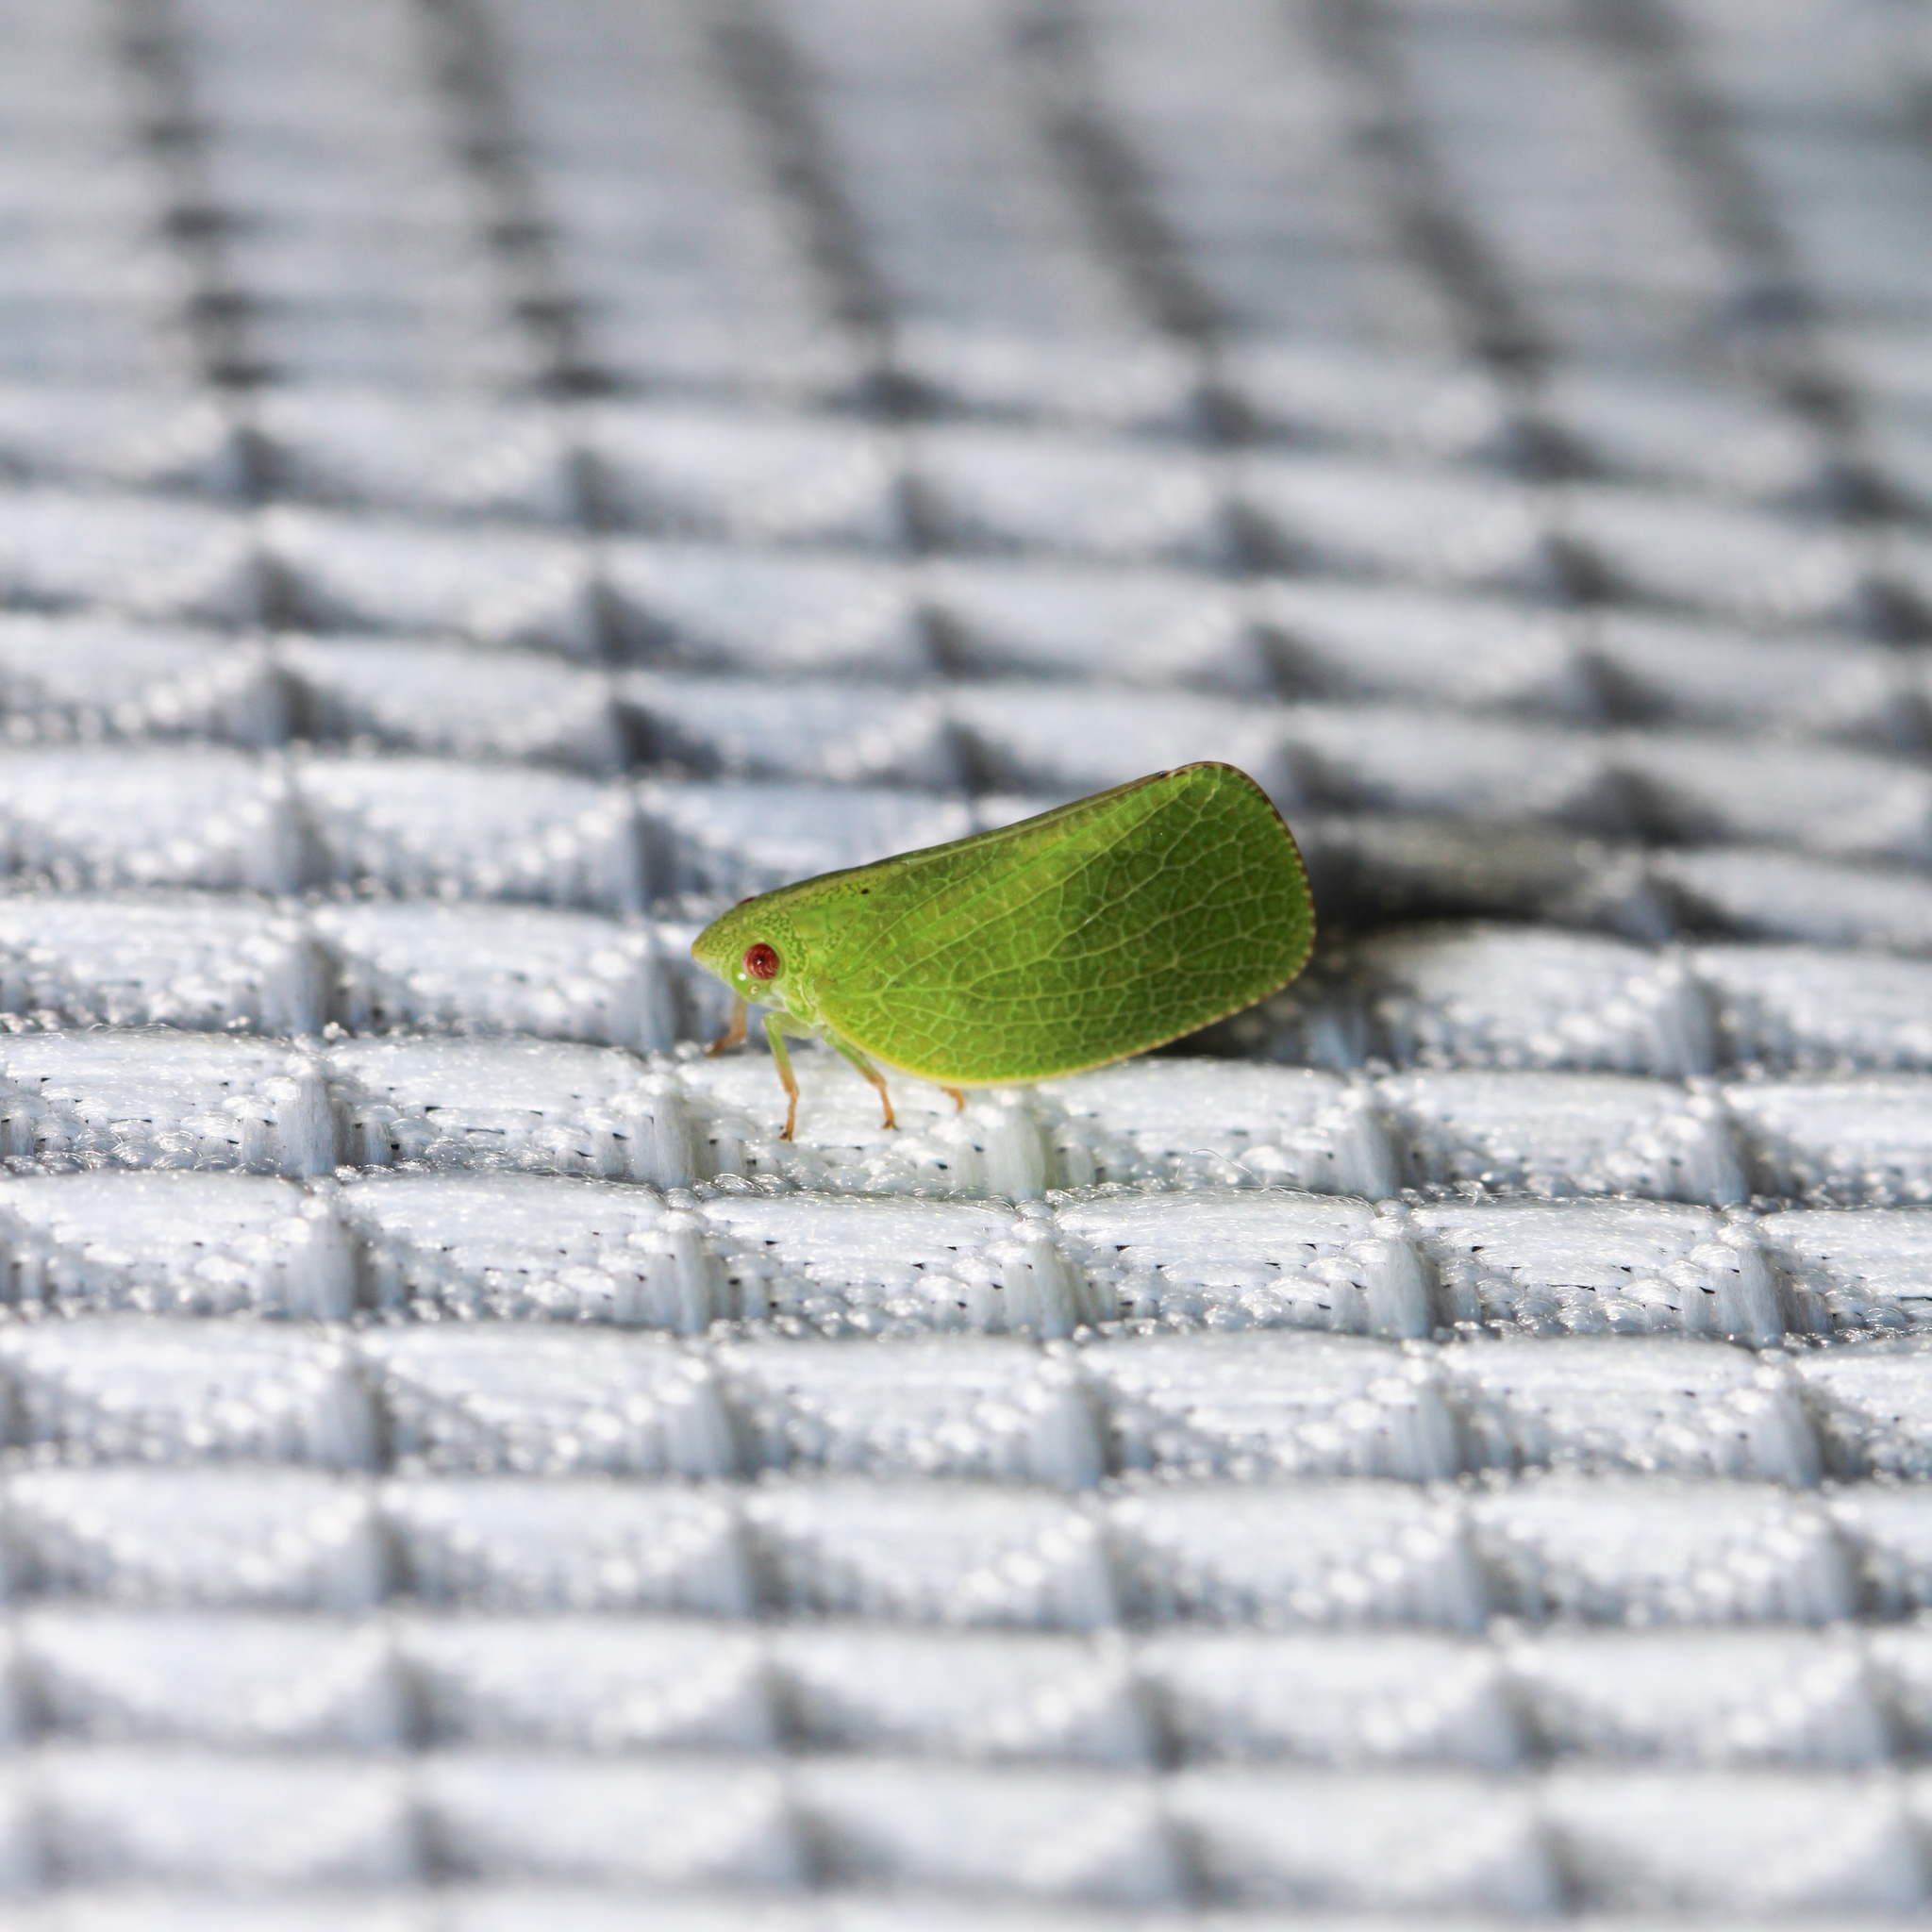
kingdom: Animalia
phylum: Arthropoda
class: Insecta
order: Hemiptera
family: Acanaloniidae
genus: Acanalonia
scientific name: Acanalonia conica
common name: Green cone-headed planthopper
